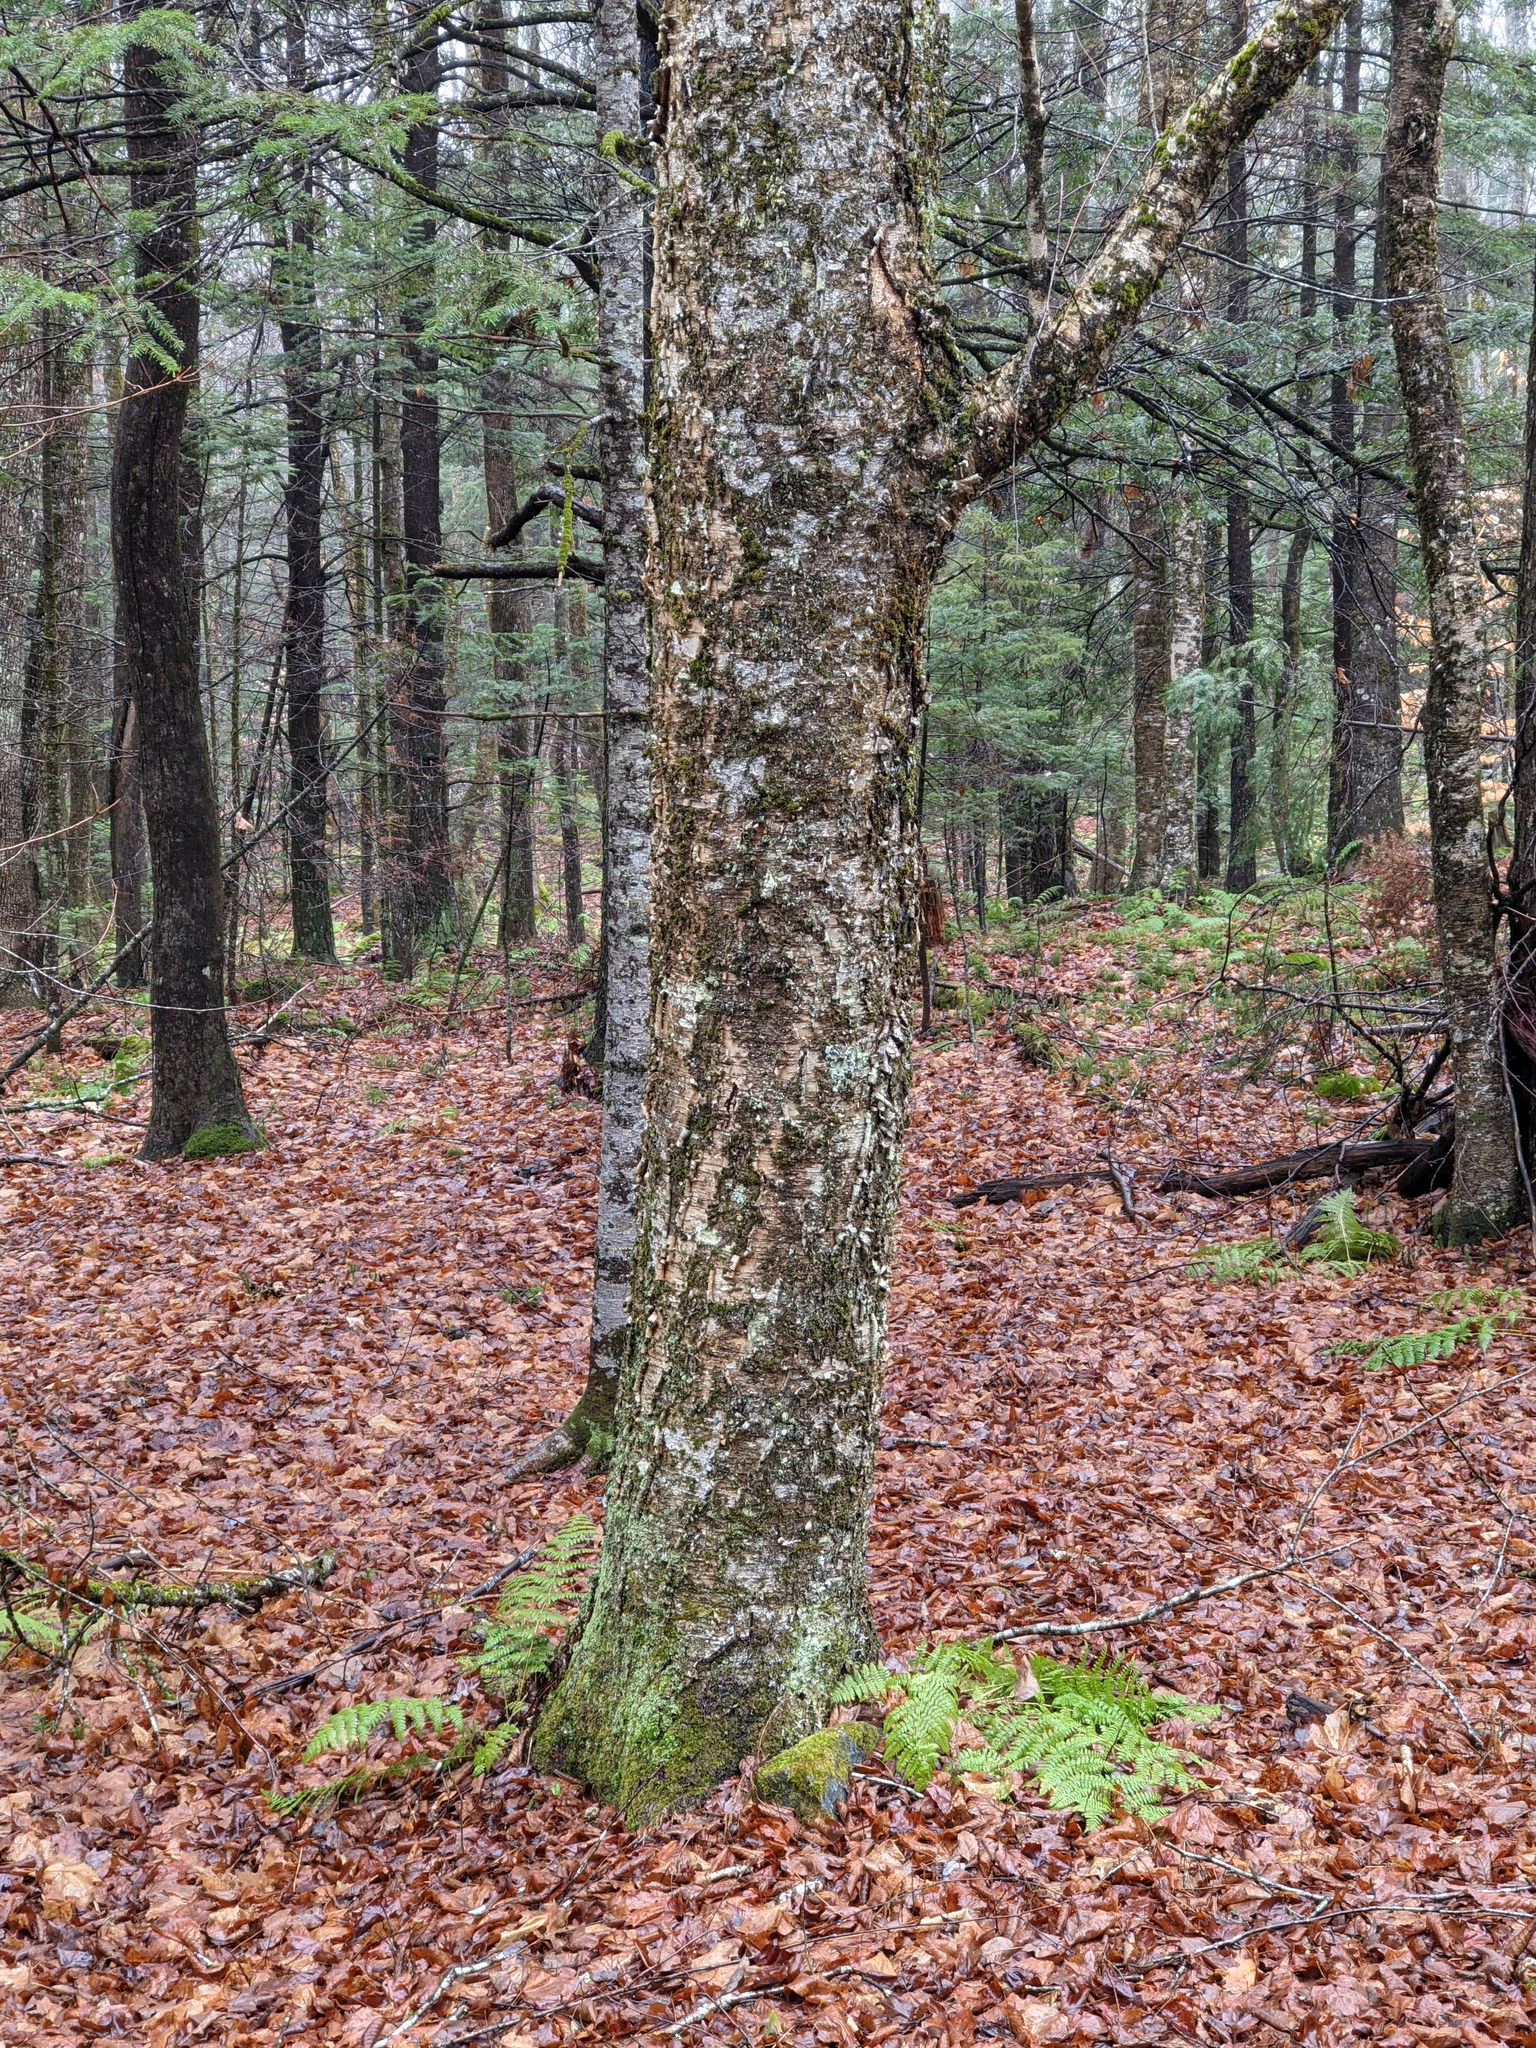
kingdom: Plantae
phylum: Tracheophyta
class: Magnoliopsida
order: Fagales
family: Betulaceae
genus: Betula
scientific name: Betula alleghaniensis
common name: Yellow birch
